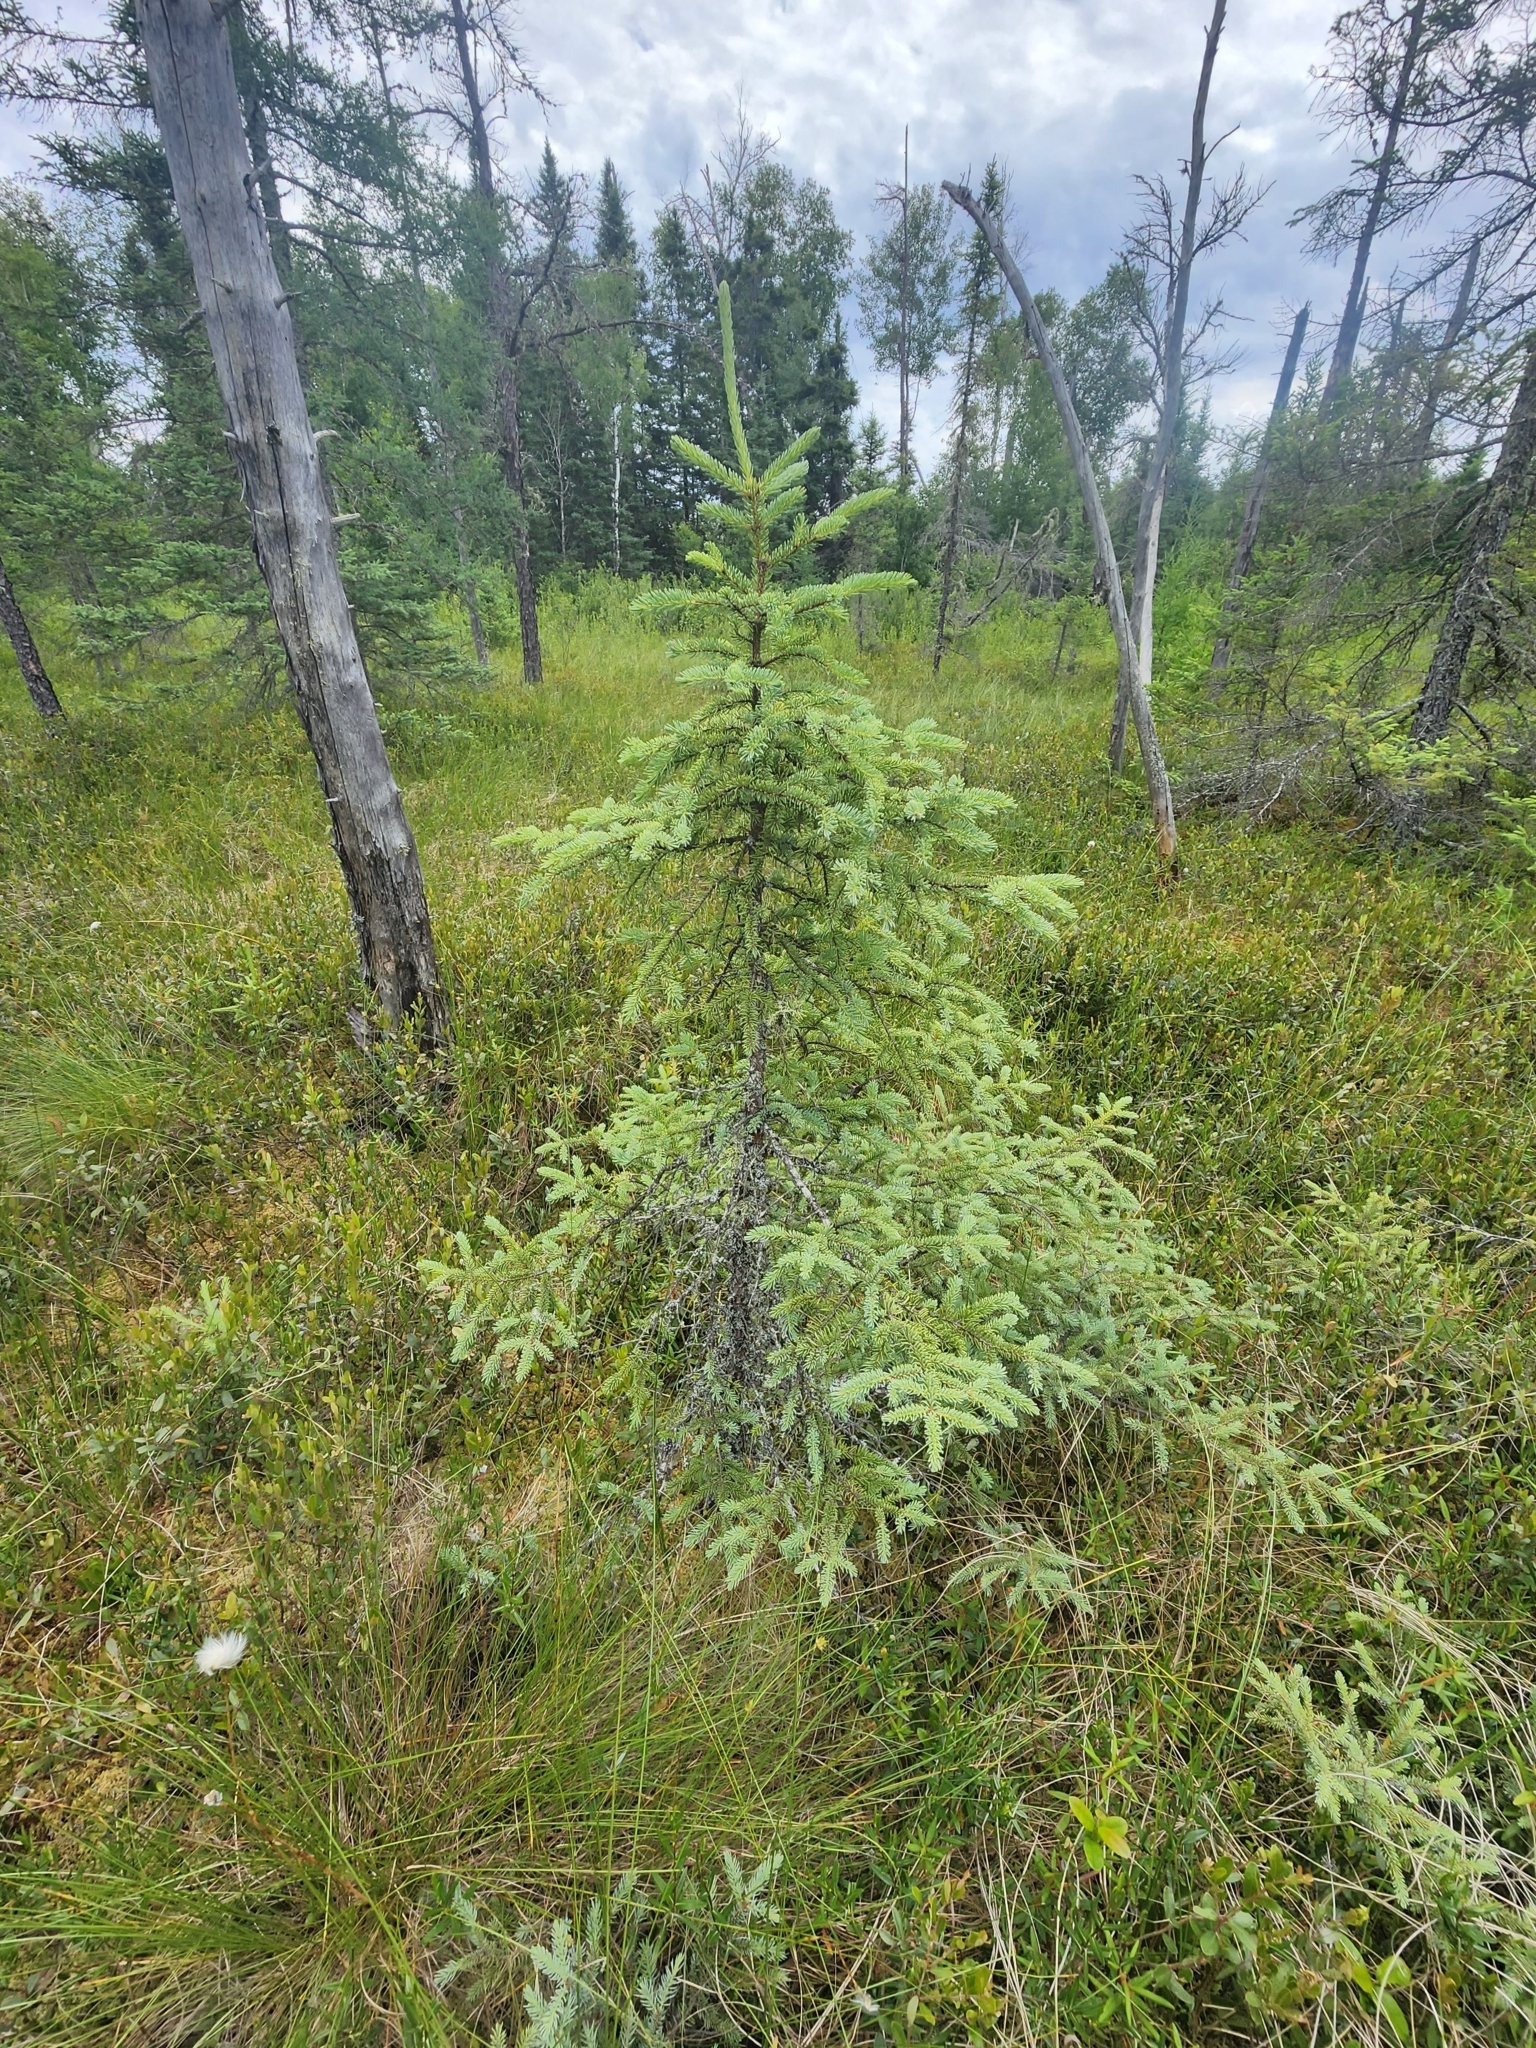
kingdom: Plantae
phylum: Tracheophyta
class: Pinopsida
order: Pinales
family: Pinaceae
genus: Picea
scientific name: Picea mariana
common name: Black spruce
